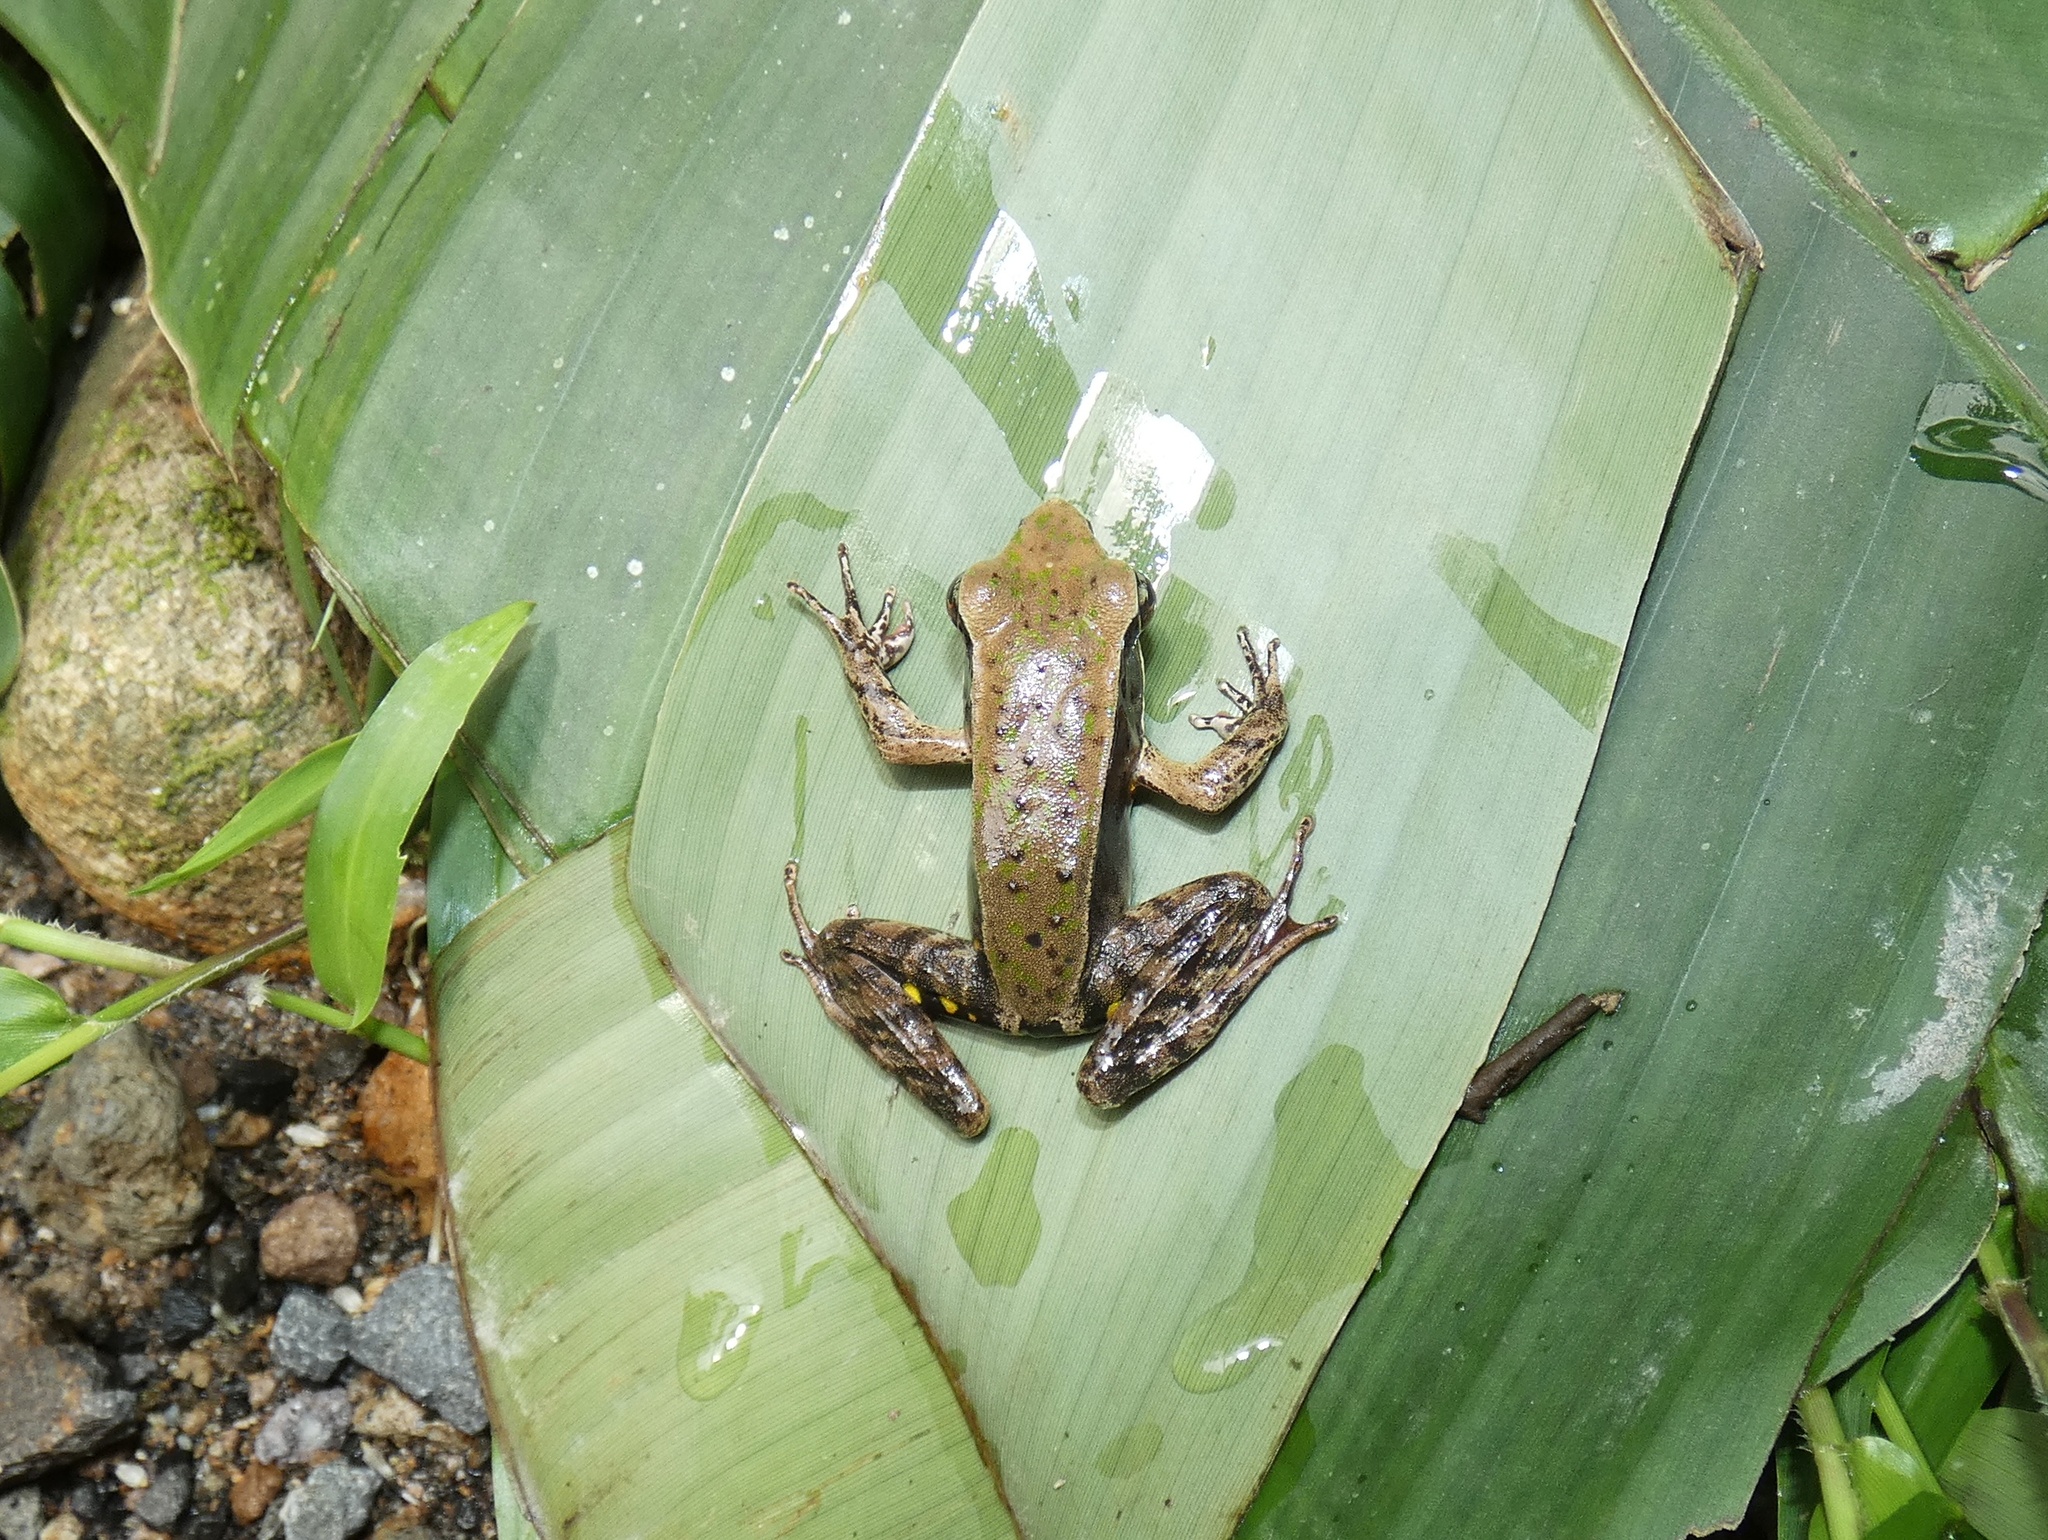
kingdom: Animalia
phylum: Chordata
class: Amphibia
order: Anura
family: Ranidae
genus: Lithobates
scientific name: Lithobates warszewitschii
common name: Warszewitsch's frog
